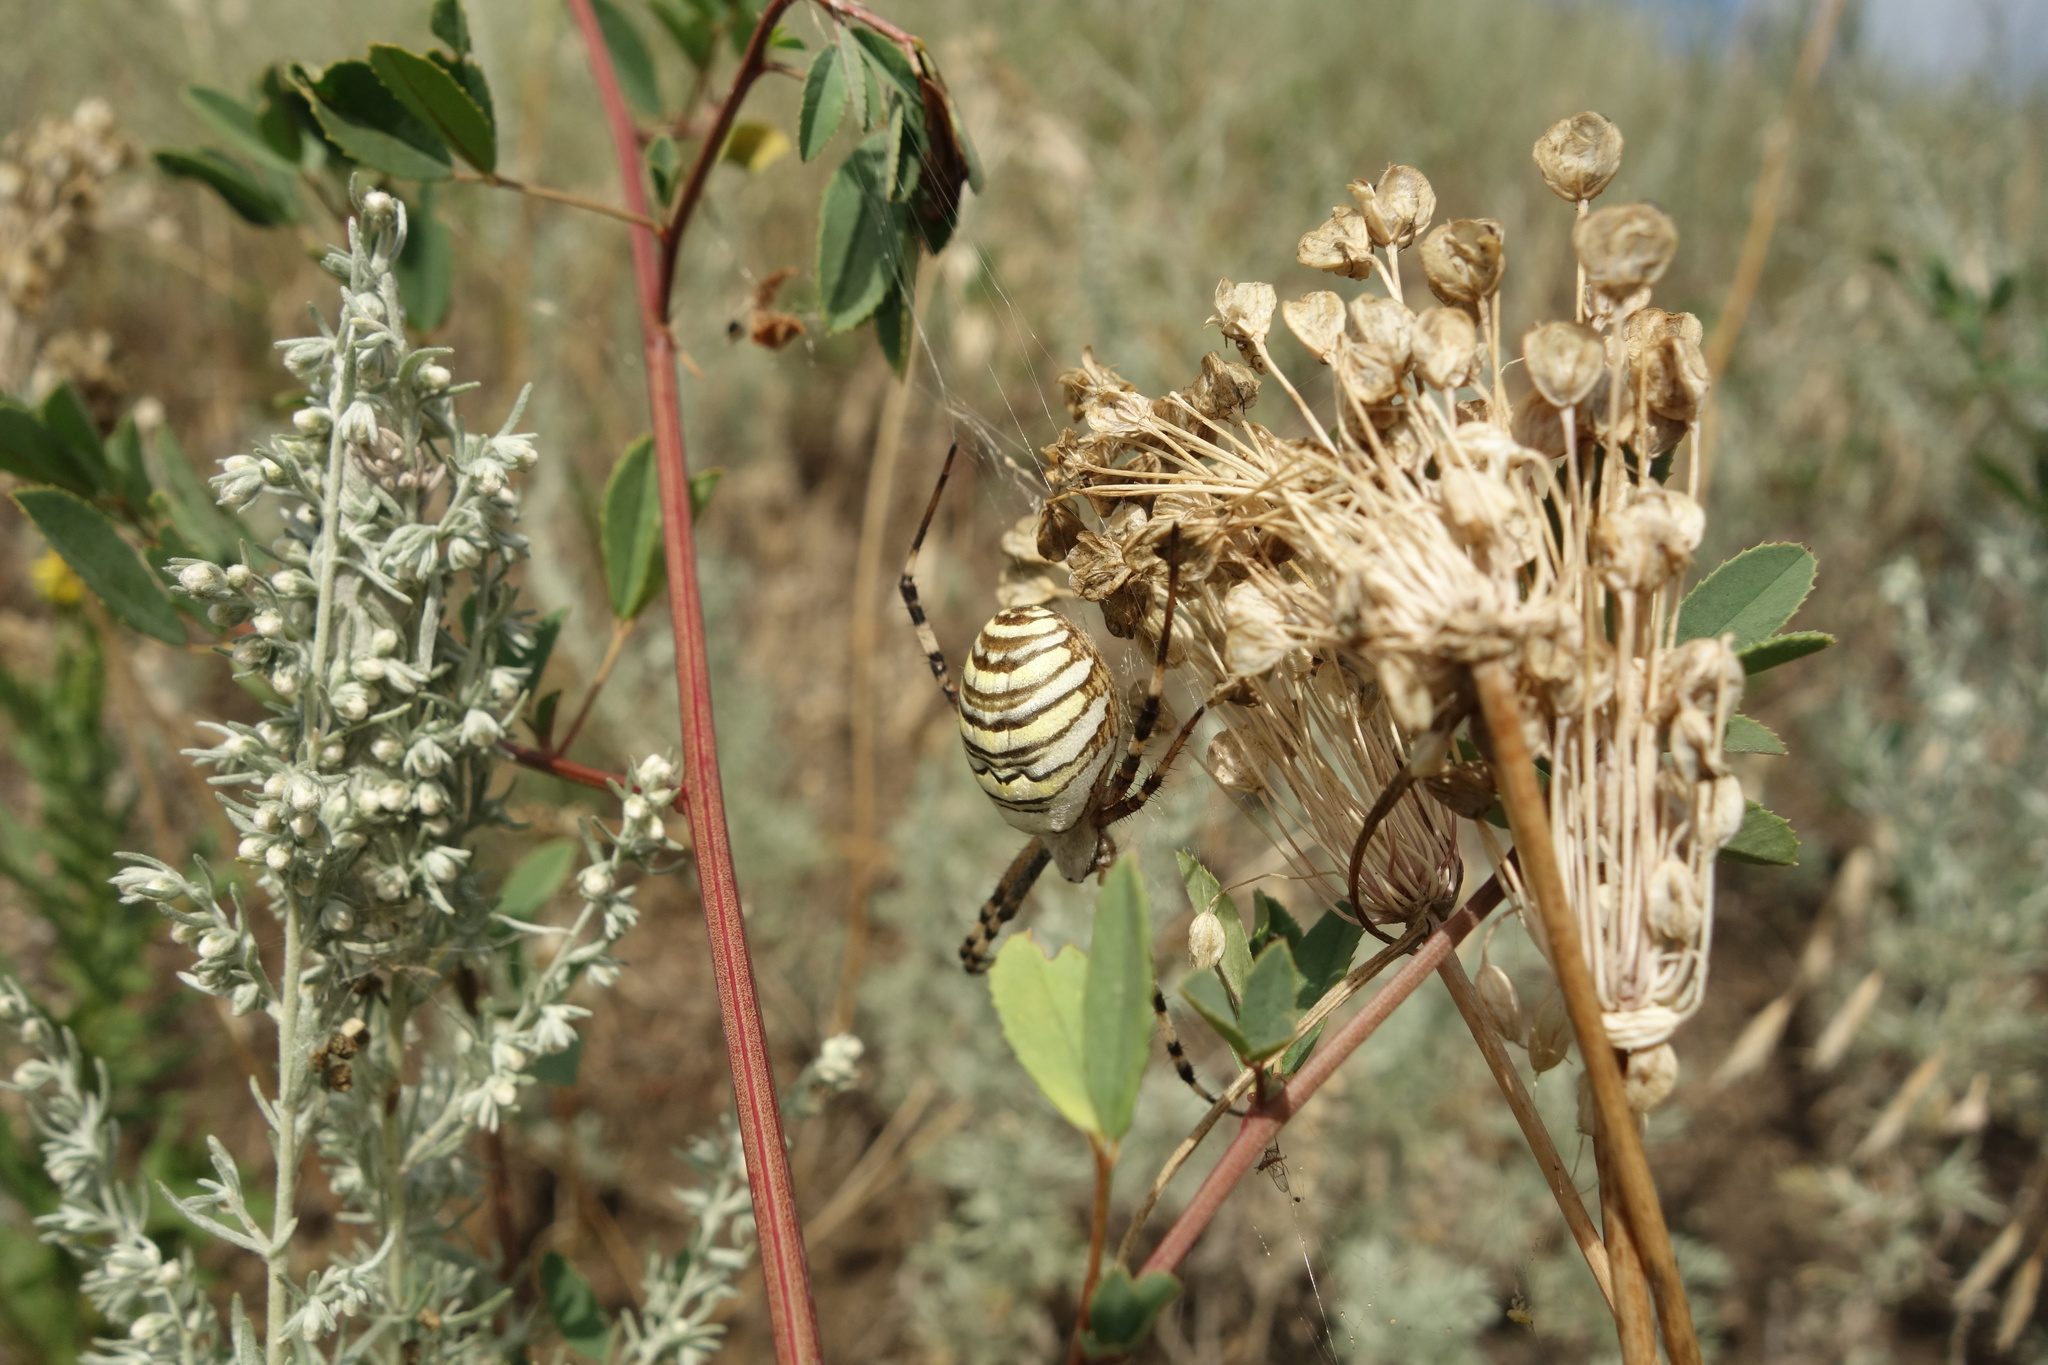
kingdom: Animalia
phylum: Arthropoda
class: Arachnida
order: Araneae
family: Araneidae
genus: Argiope
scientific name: Argiope bruennichi
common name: Wasp spider
